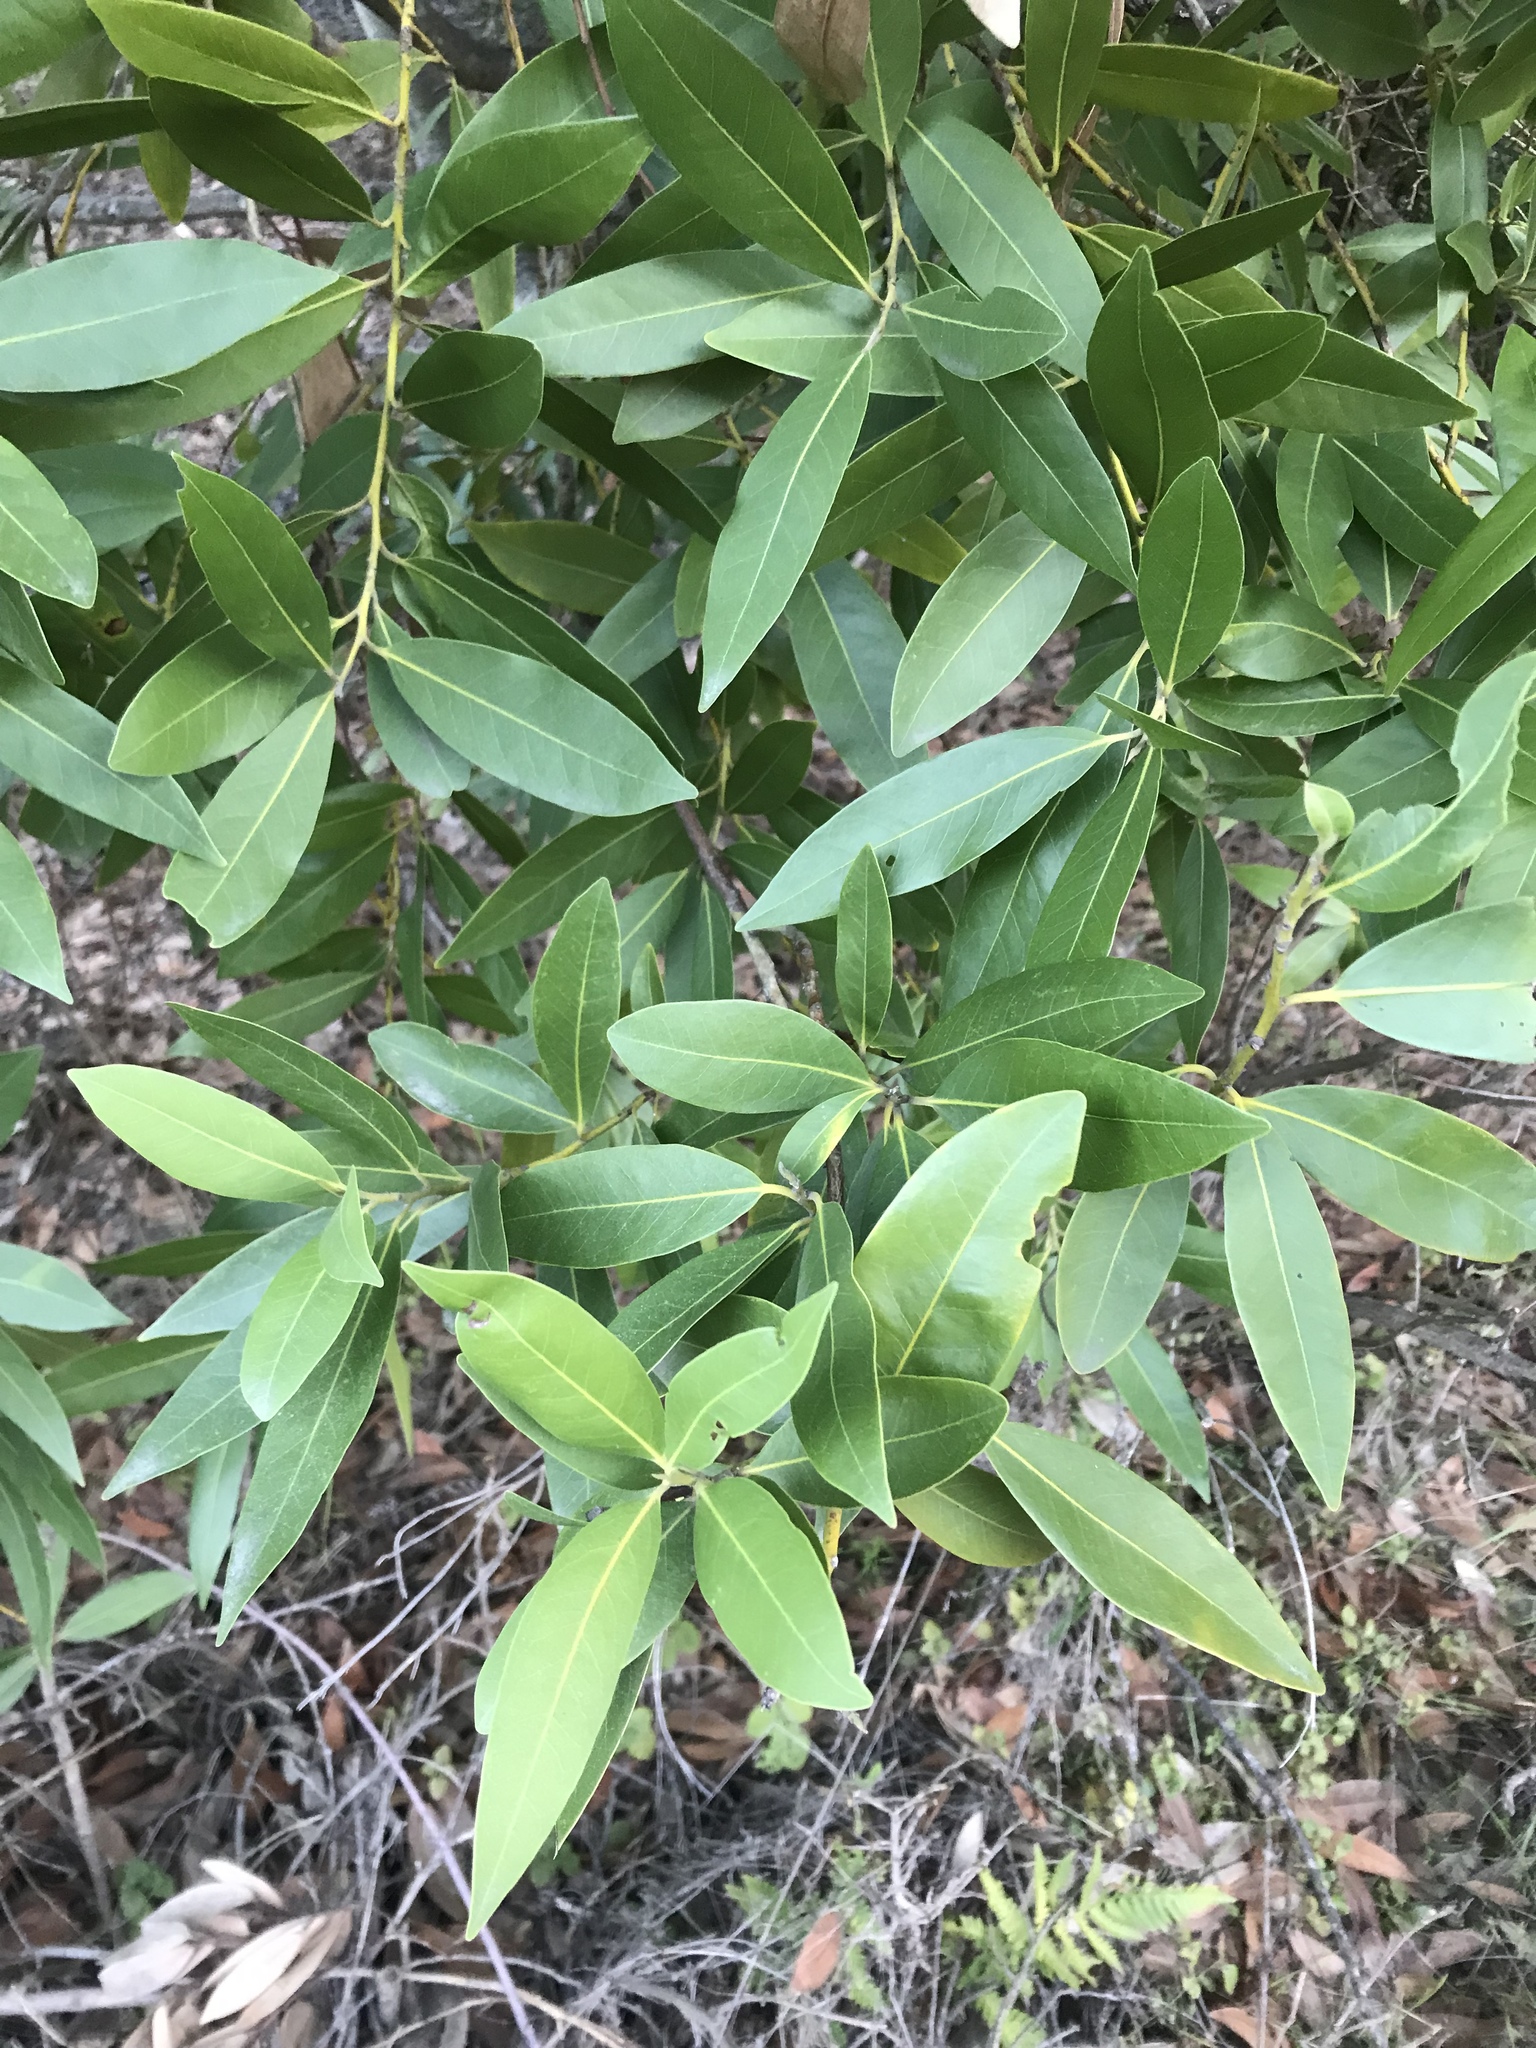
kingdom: Plantae
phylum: Tracheophyta
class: Magnoliopsida
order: Laurales
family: Lauraceae
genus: Umbellularia
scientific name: Umbellularia californica
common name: California bay
